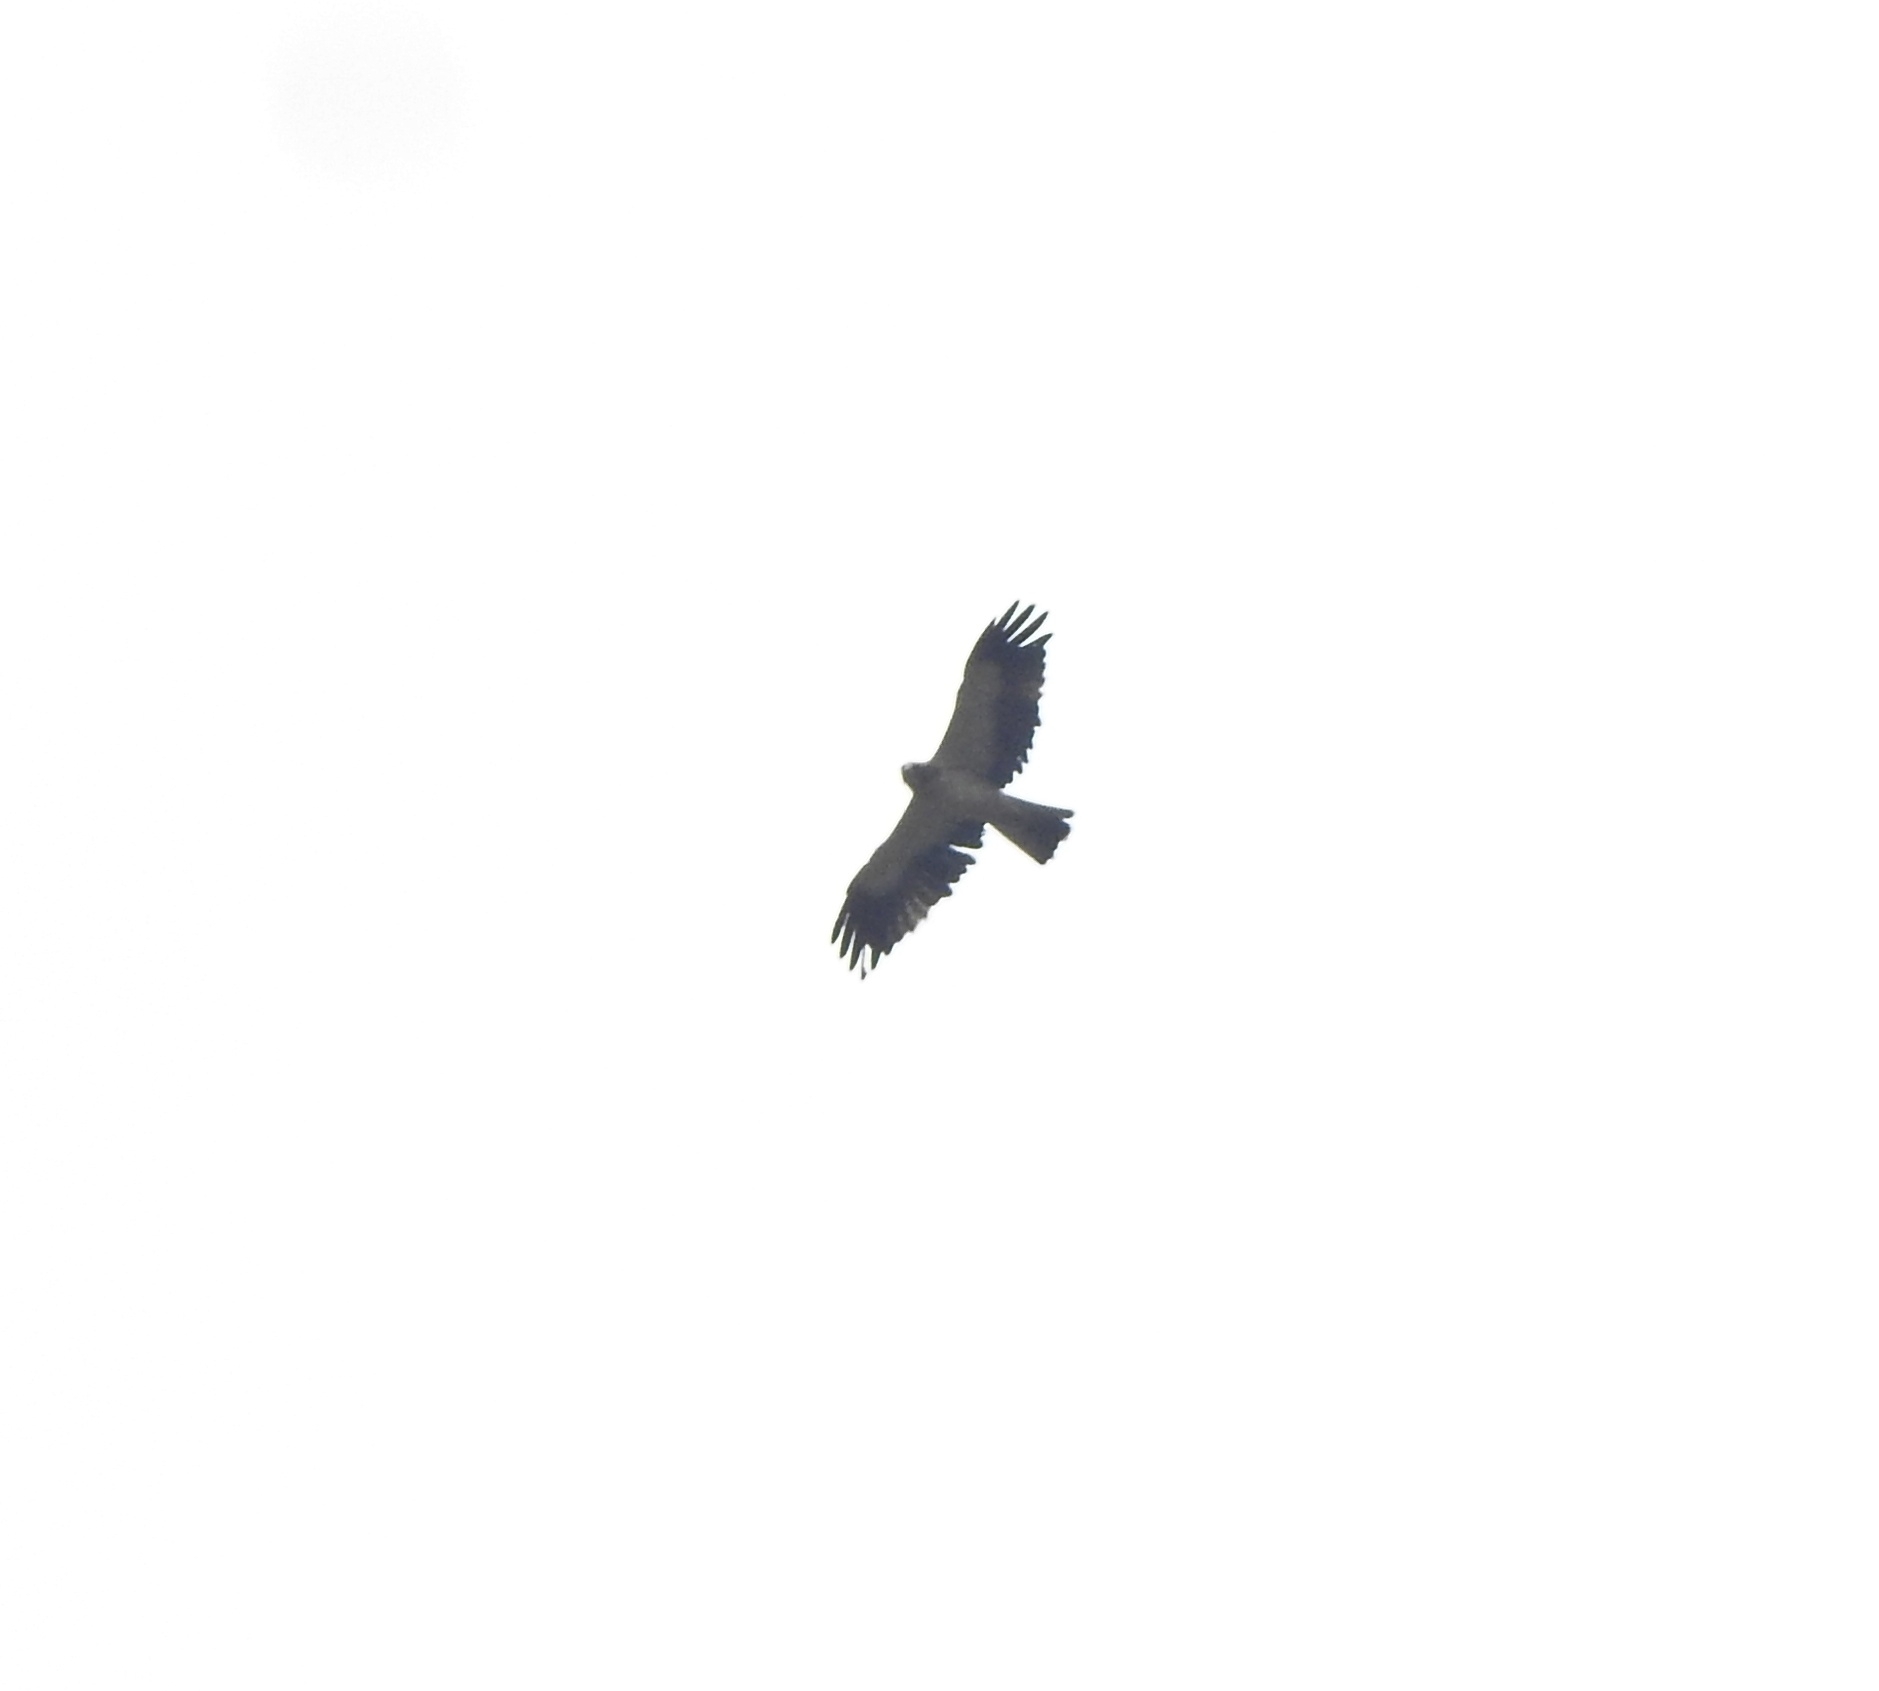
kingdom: Animalia
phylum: Chordata
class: Aves
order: Accipitriformes
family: Accipitridae
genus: Hieraaetus
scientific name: Hieraaetus pennatus
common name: Booted eagle
